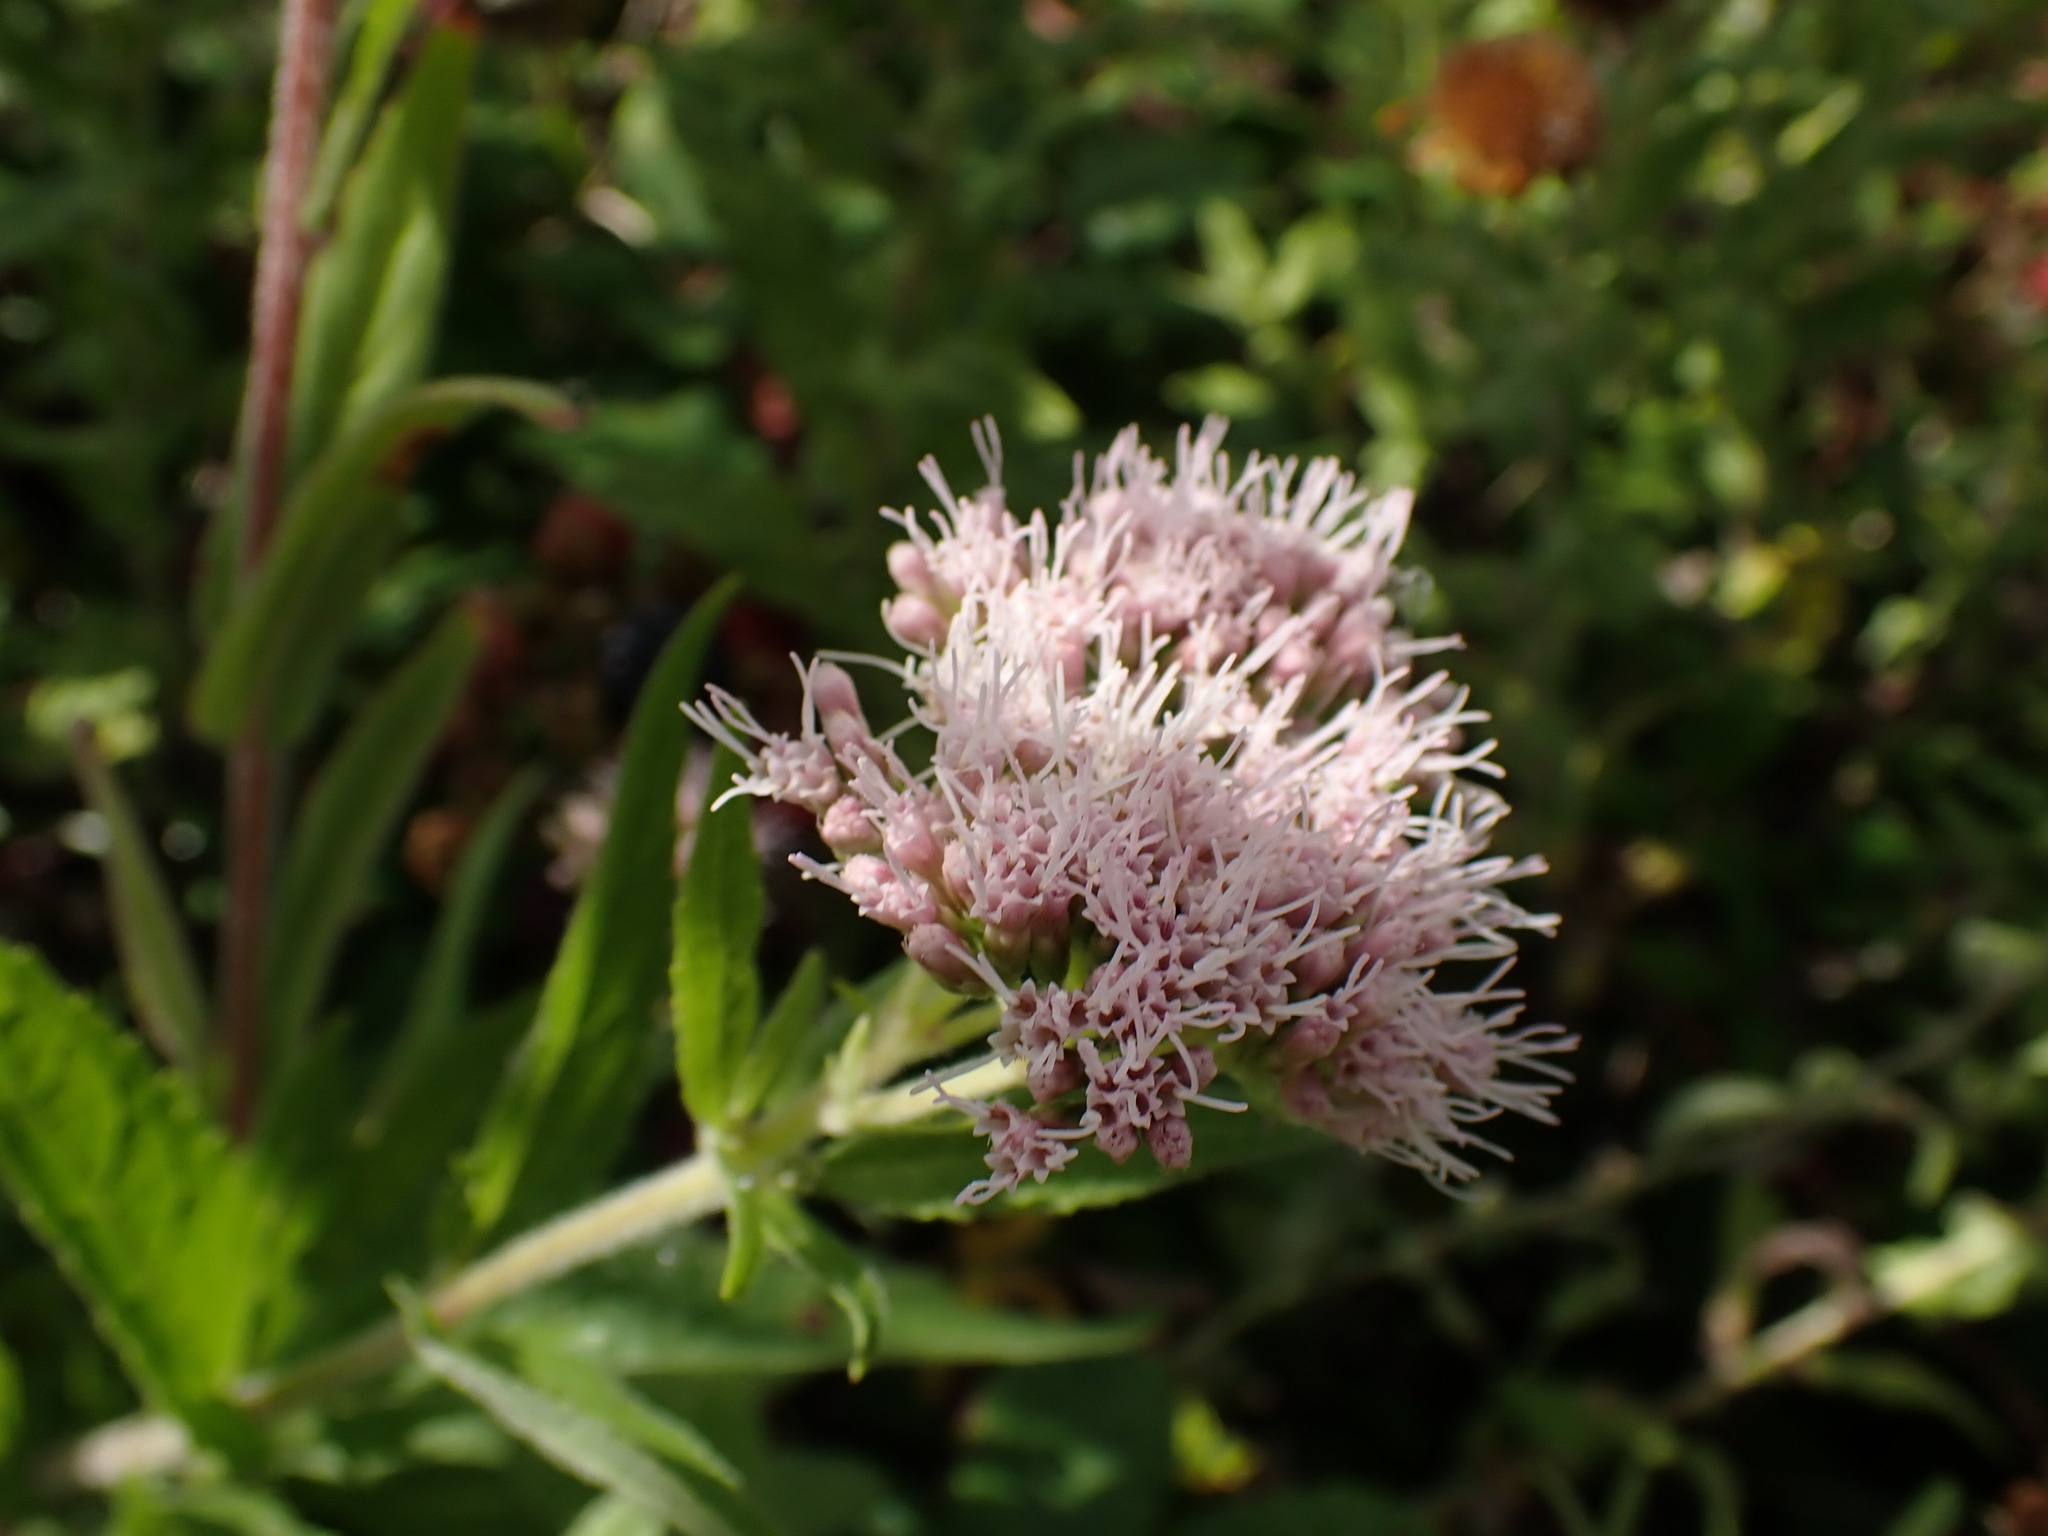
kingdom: Plantae
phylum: Tracheophyta
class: Magnoliopsida
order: Asterales
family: Asteraceae
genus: Eupatorium
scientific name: Eupatorium cannabinum
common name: Hemp-agrimony
